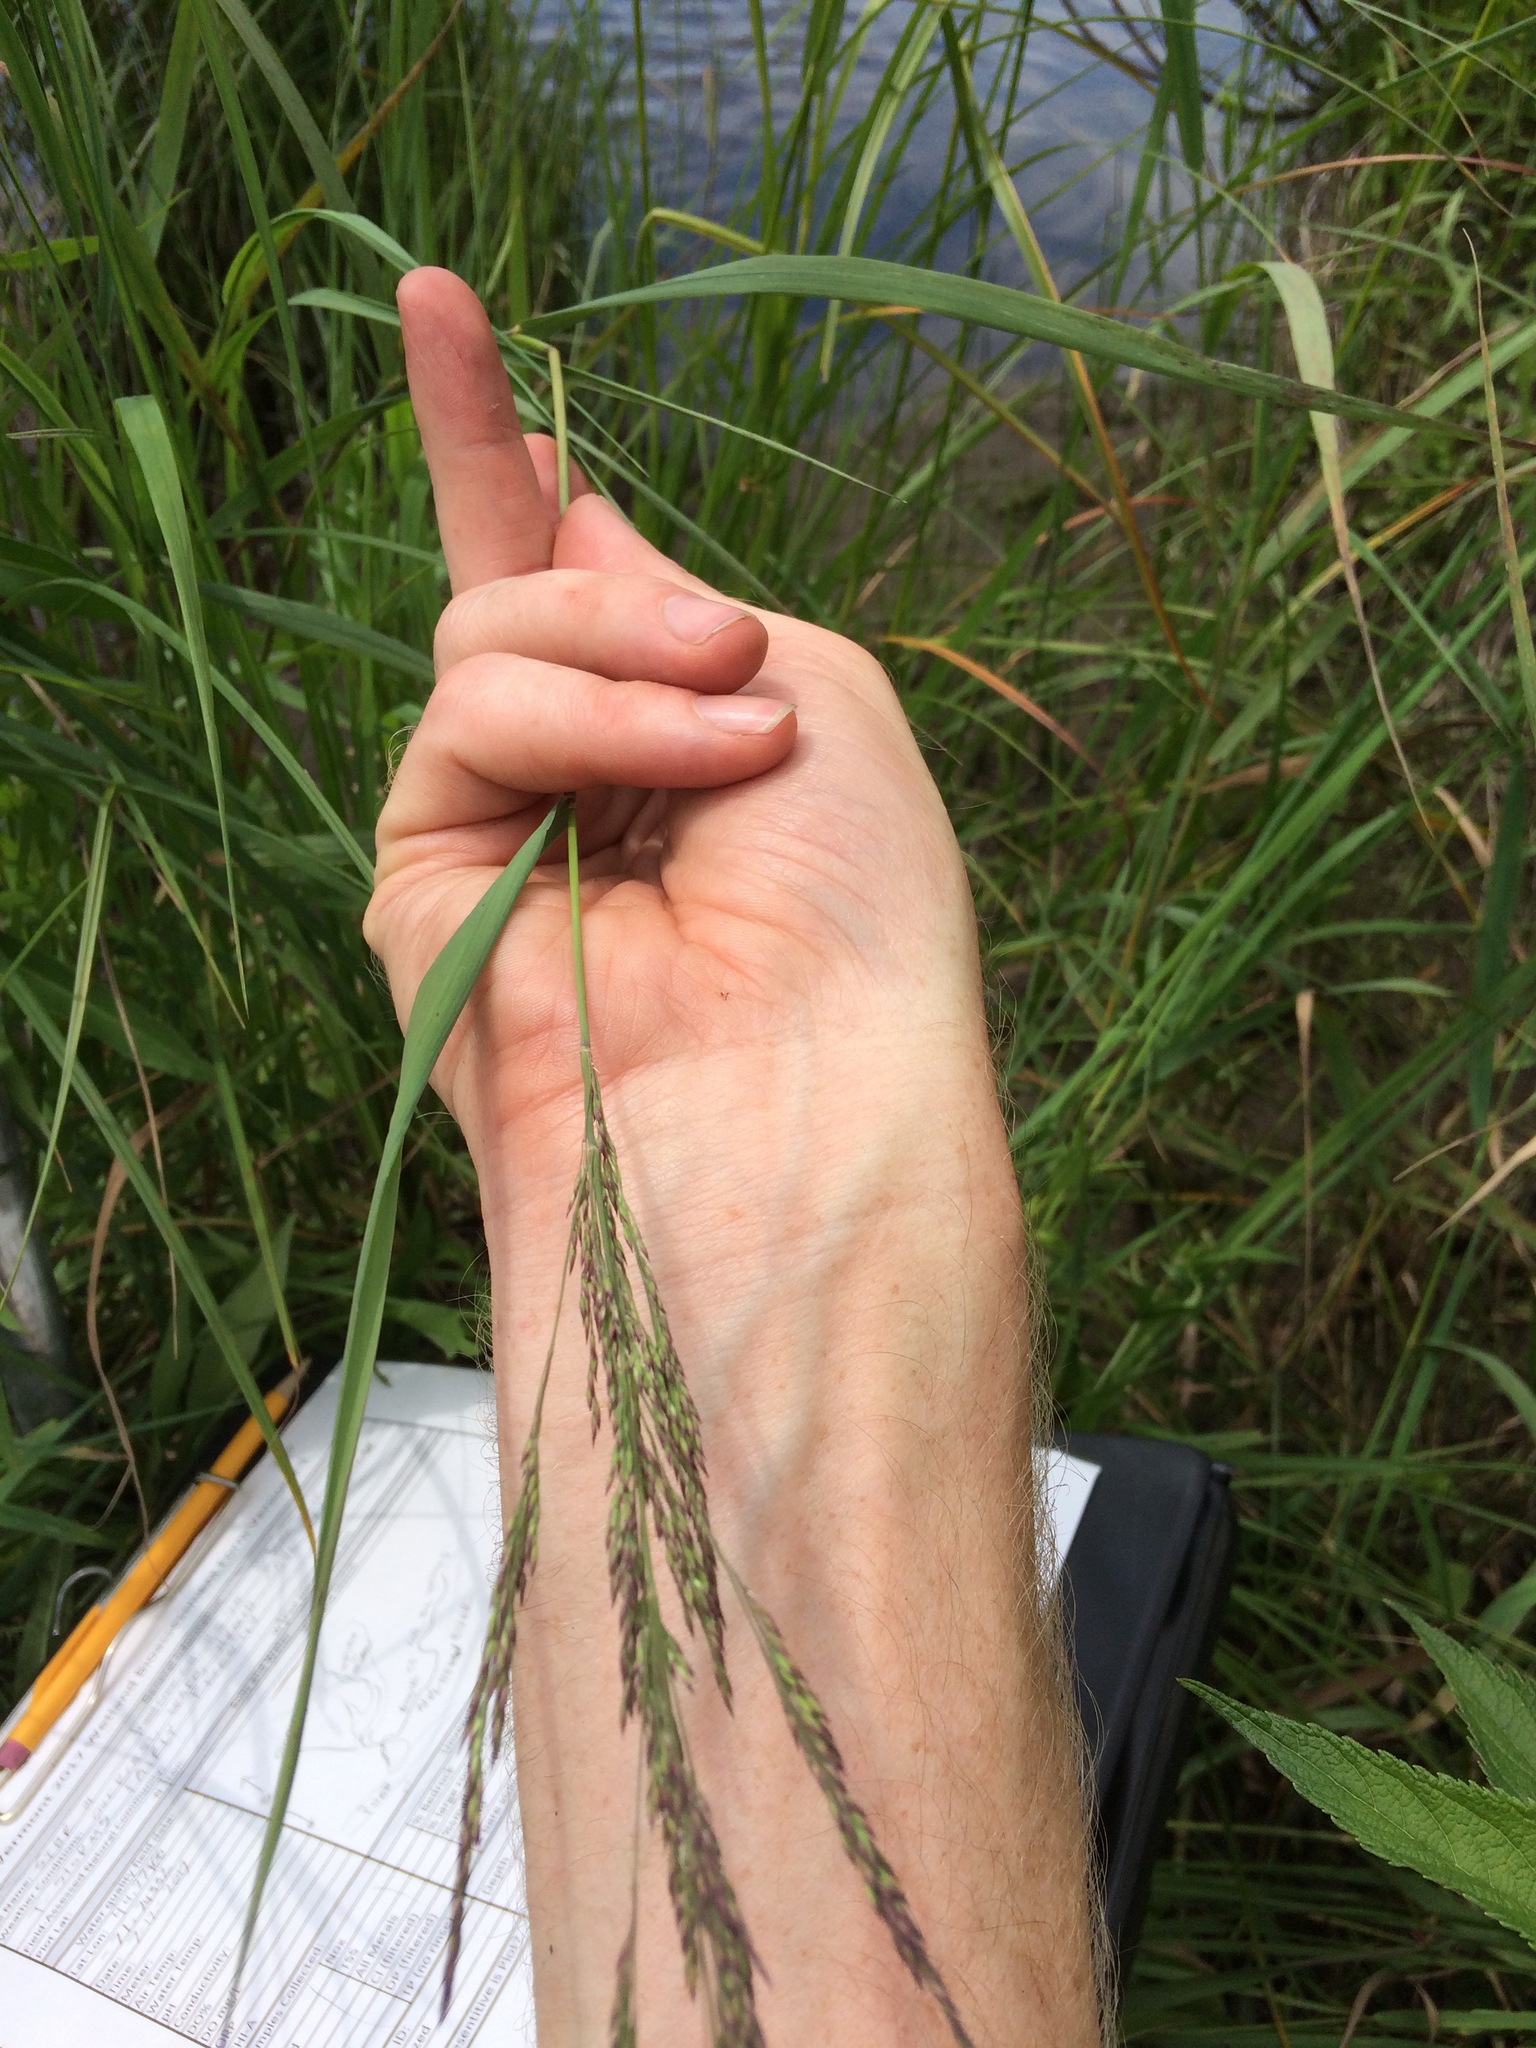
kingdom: Plantae
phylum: Tracheophyta
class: Liliopsida
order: Poales
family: Poaceae
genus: Calamagrostis
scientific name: Calamagrostis canadensis
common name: Canada bluejoint
